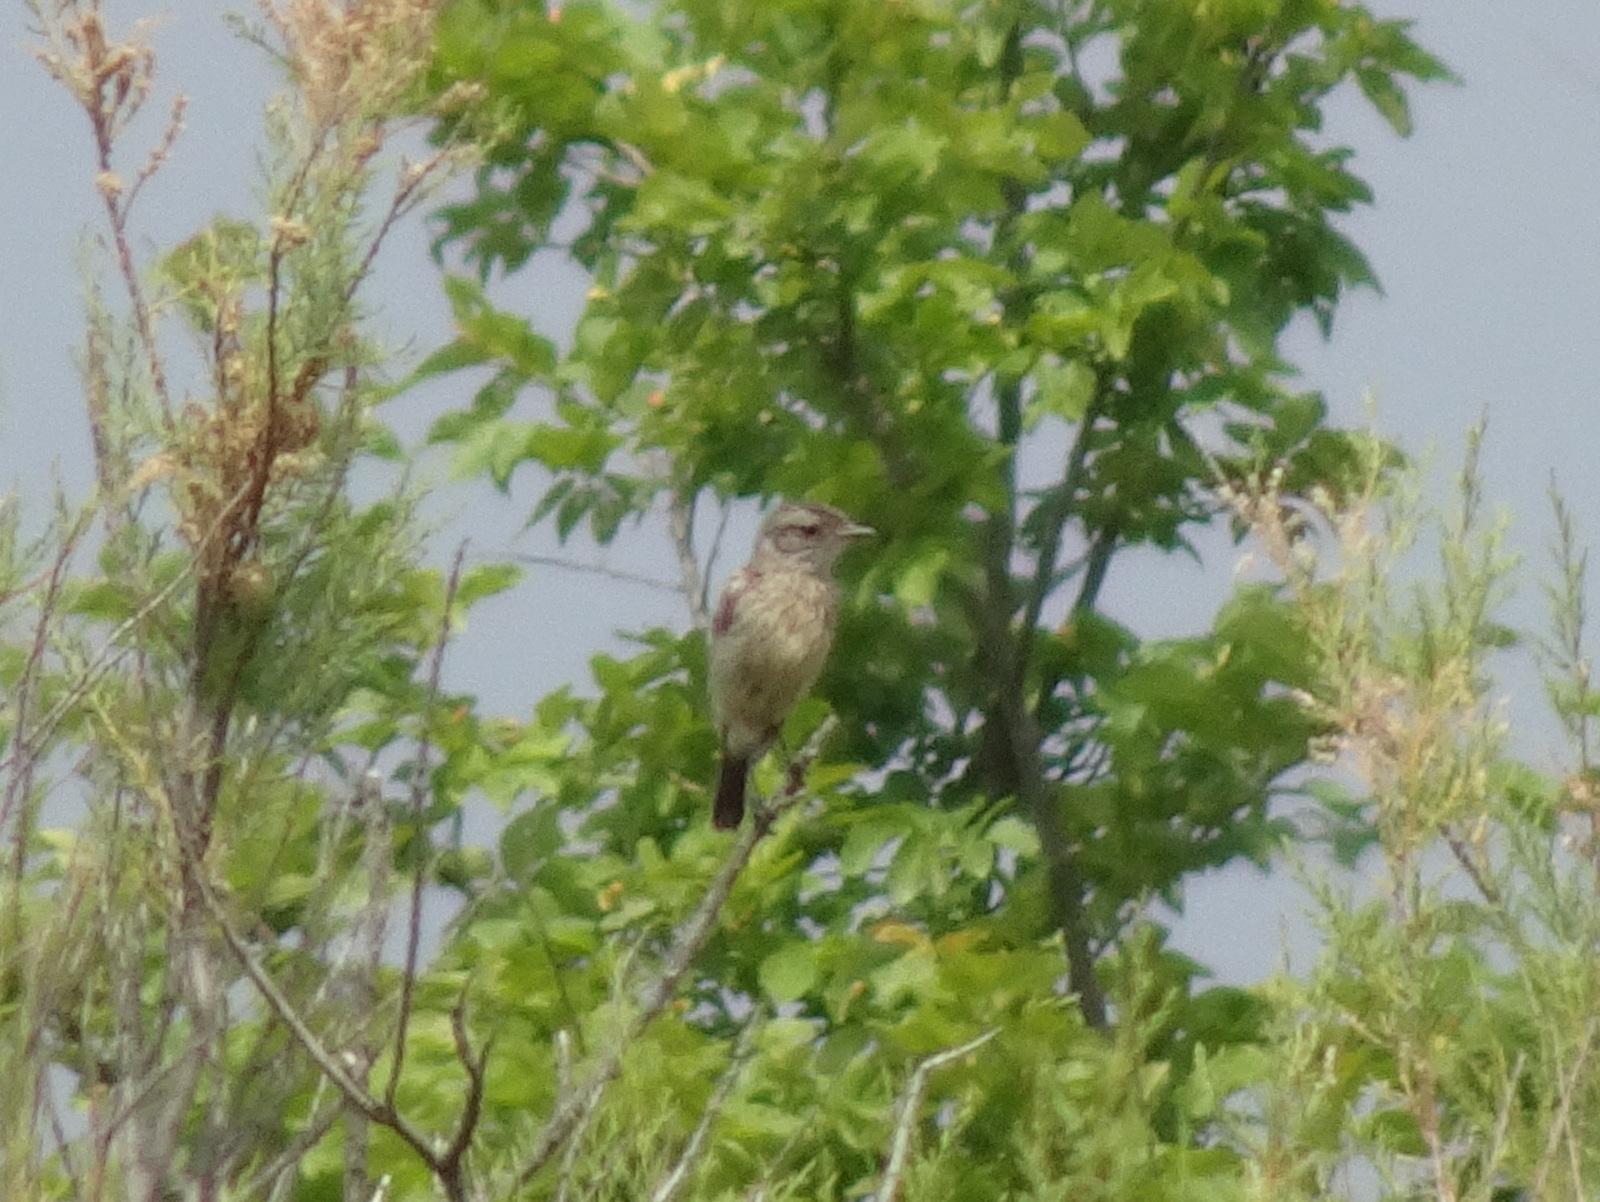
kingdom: Animalia
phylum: Chordata
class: Aves
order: Passeriformes
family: Muscicapidae
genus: Saxicola
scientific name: Saxicola rubicola
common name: European stonechat
